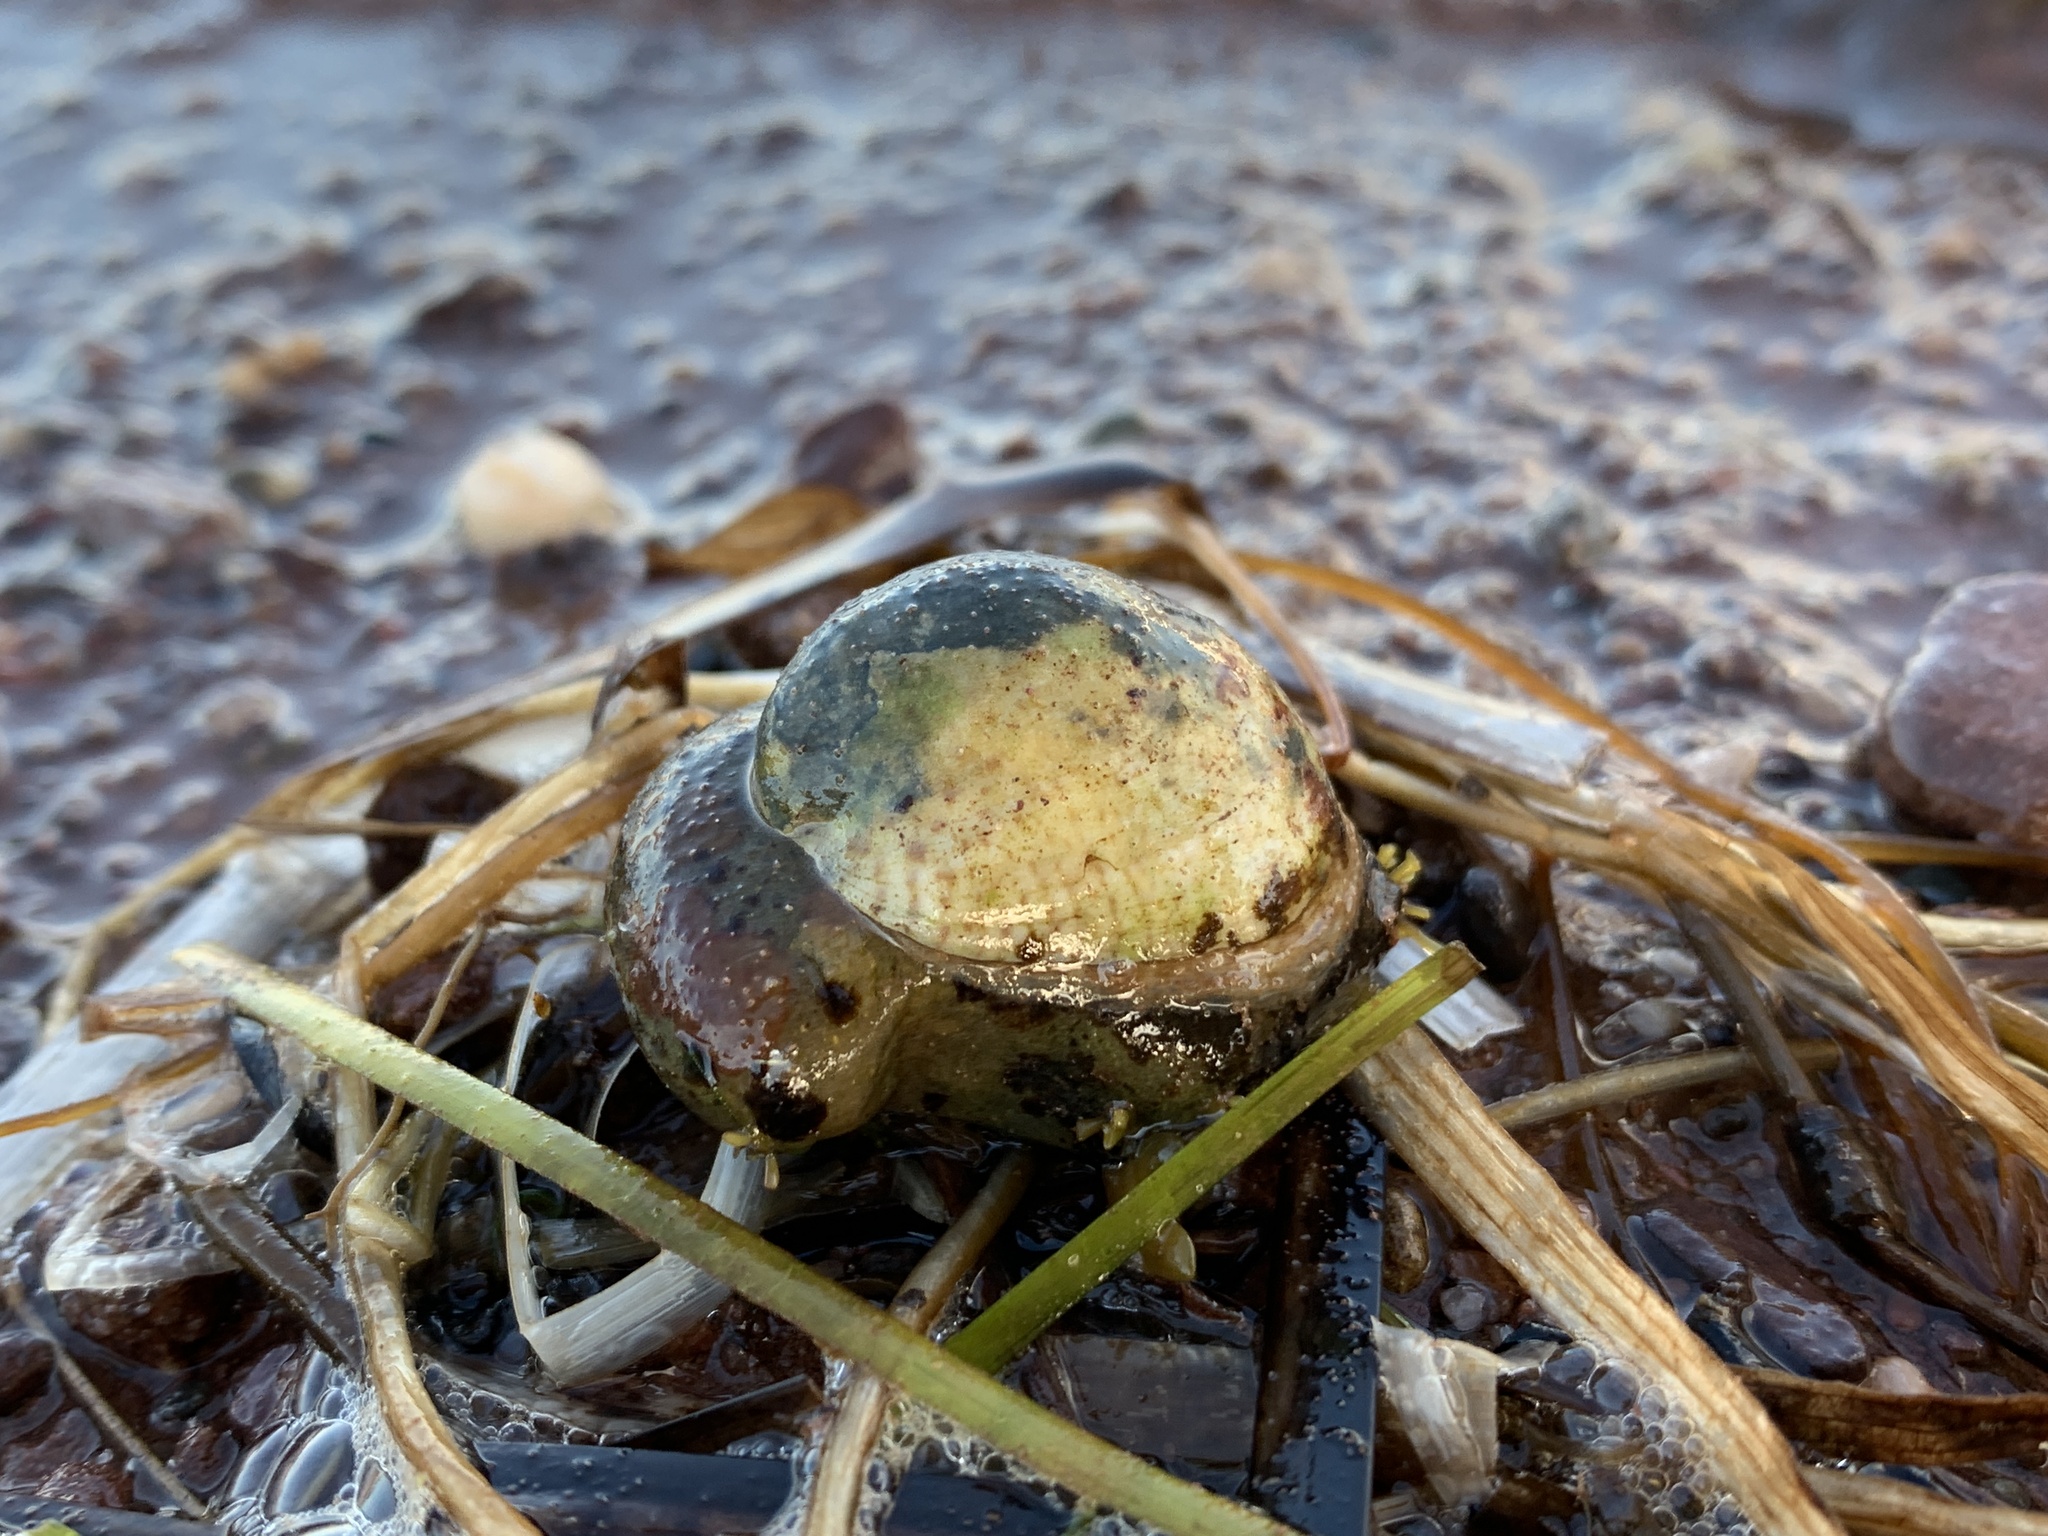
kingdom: Animalia
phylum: Mollusca
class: Gastropoda
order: Littorinimorpha
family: Calyptraeidae
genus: Crepidula
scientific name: Crepidula fornicata
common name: Slipper limpet
